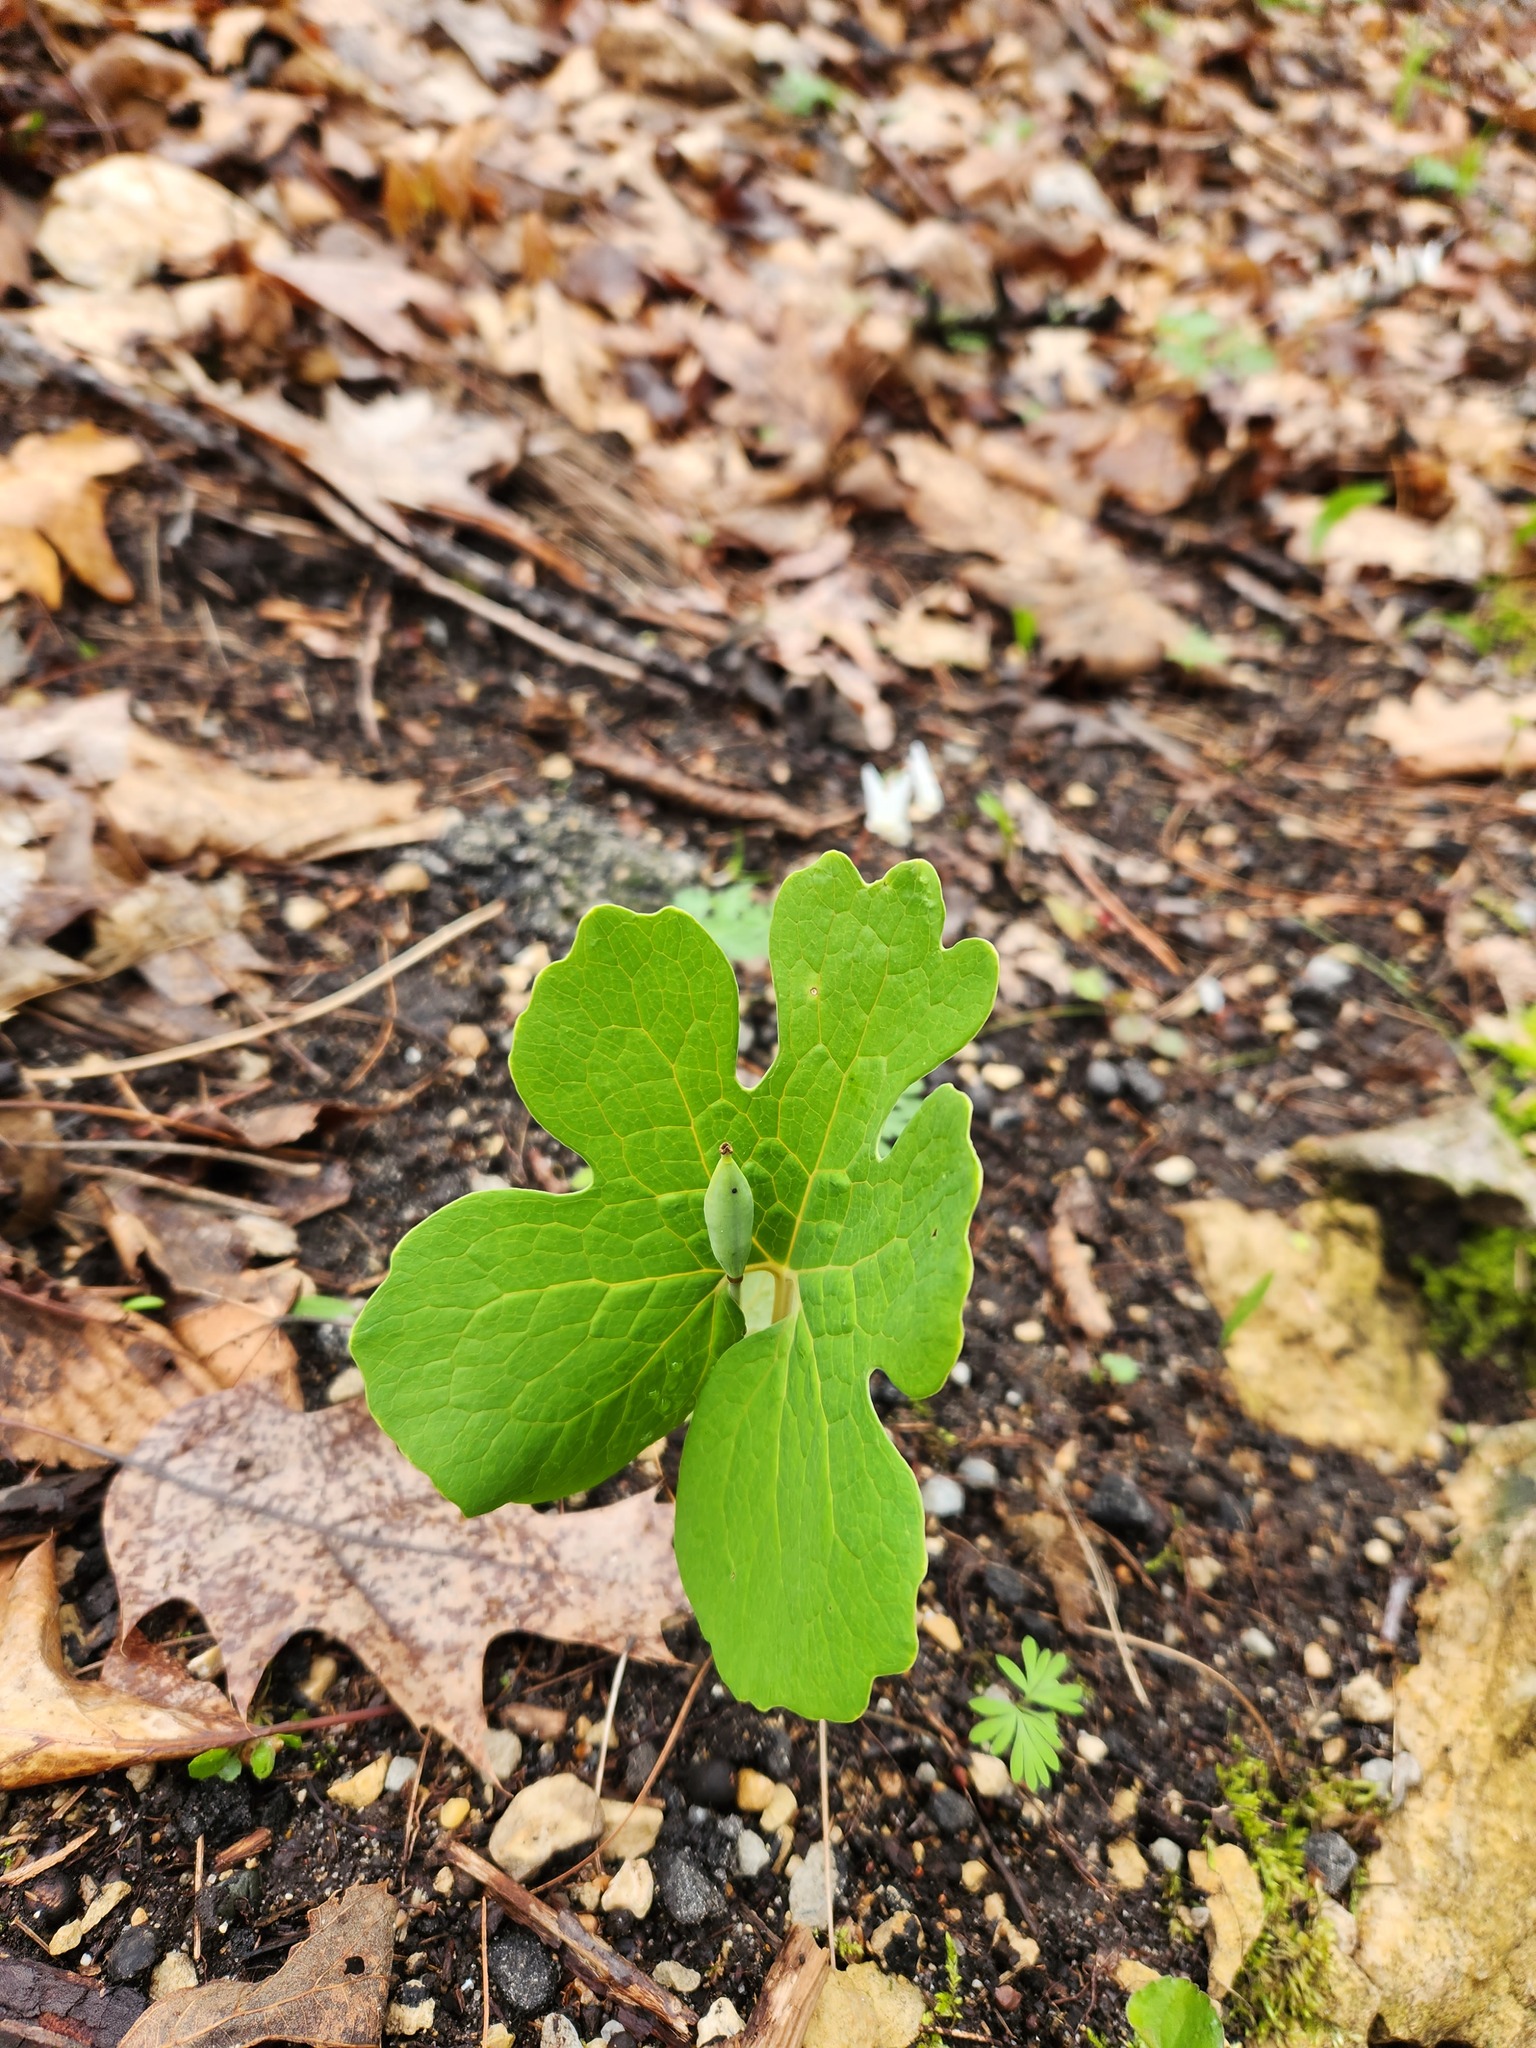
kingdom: Plantae
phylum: Tracheophyta
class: Magnoliopsida
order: Ranunculales
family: Papaveraceae
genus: Sanguinaria
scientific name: Sanguinaria canadensis
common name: Bloodroot
